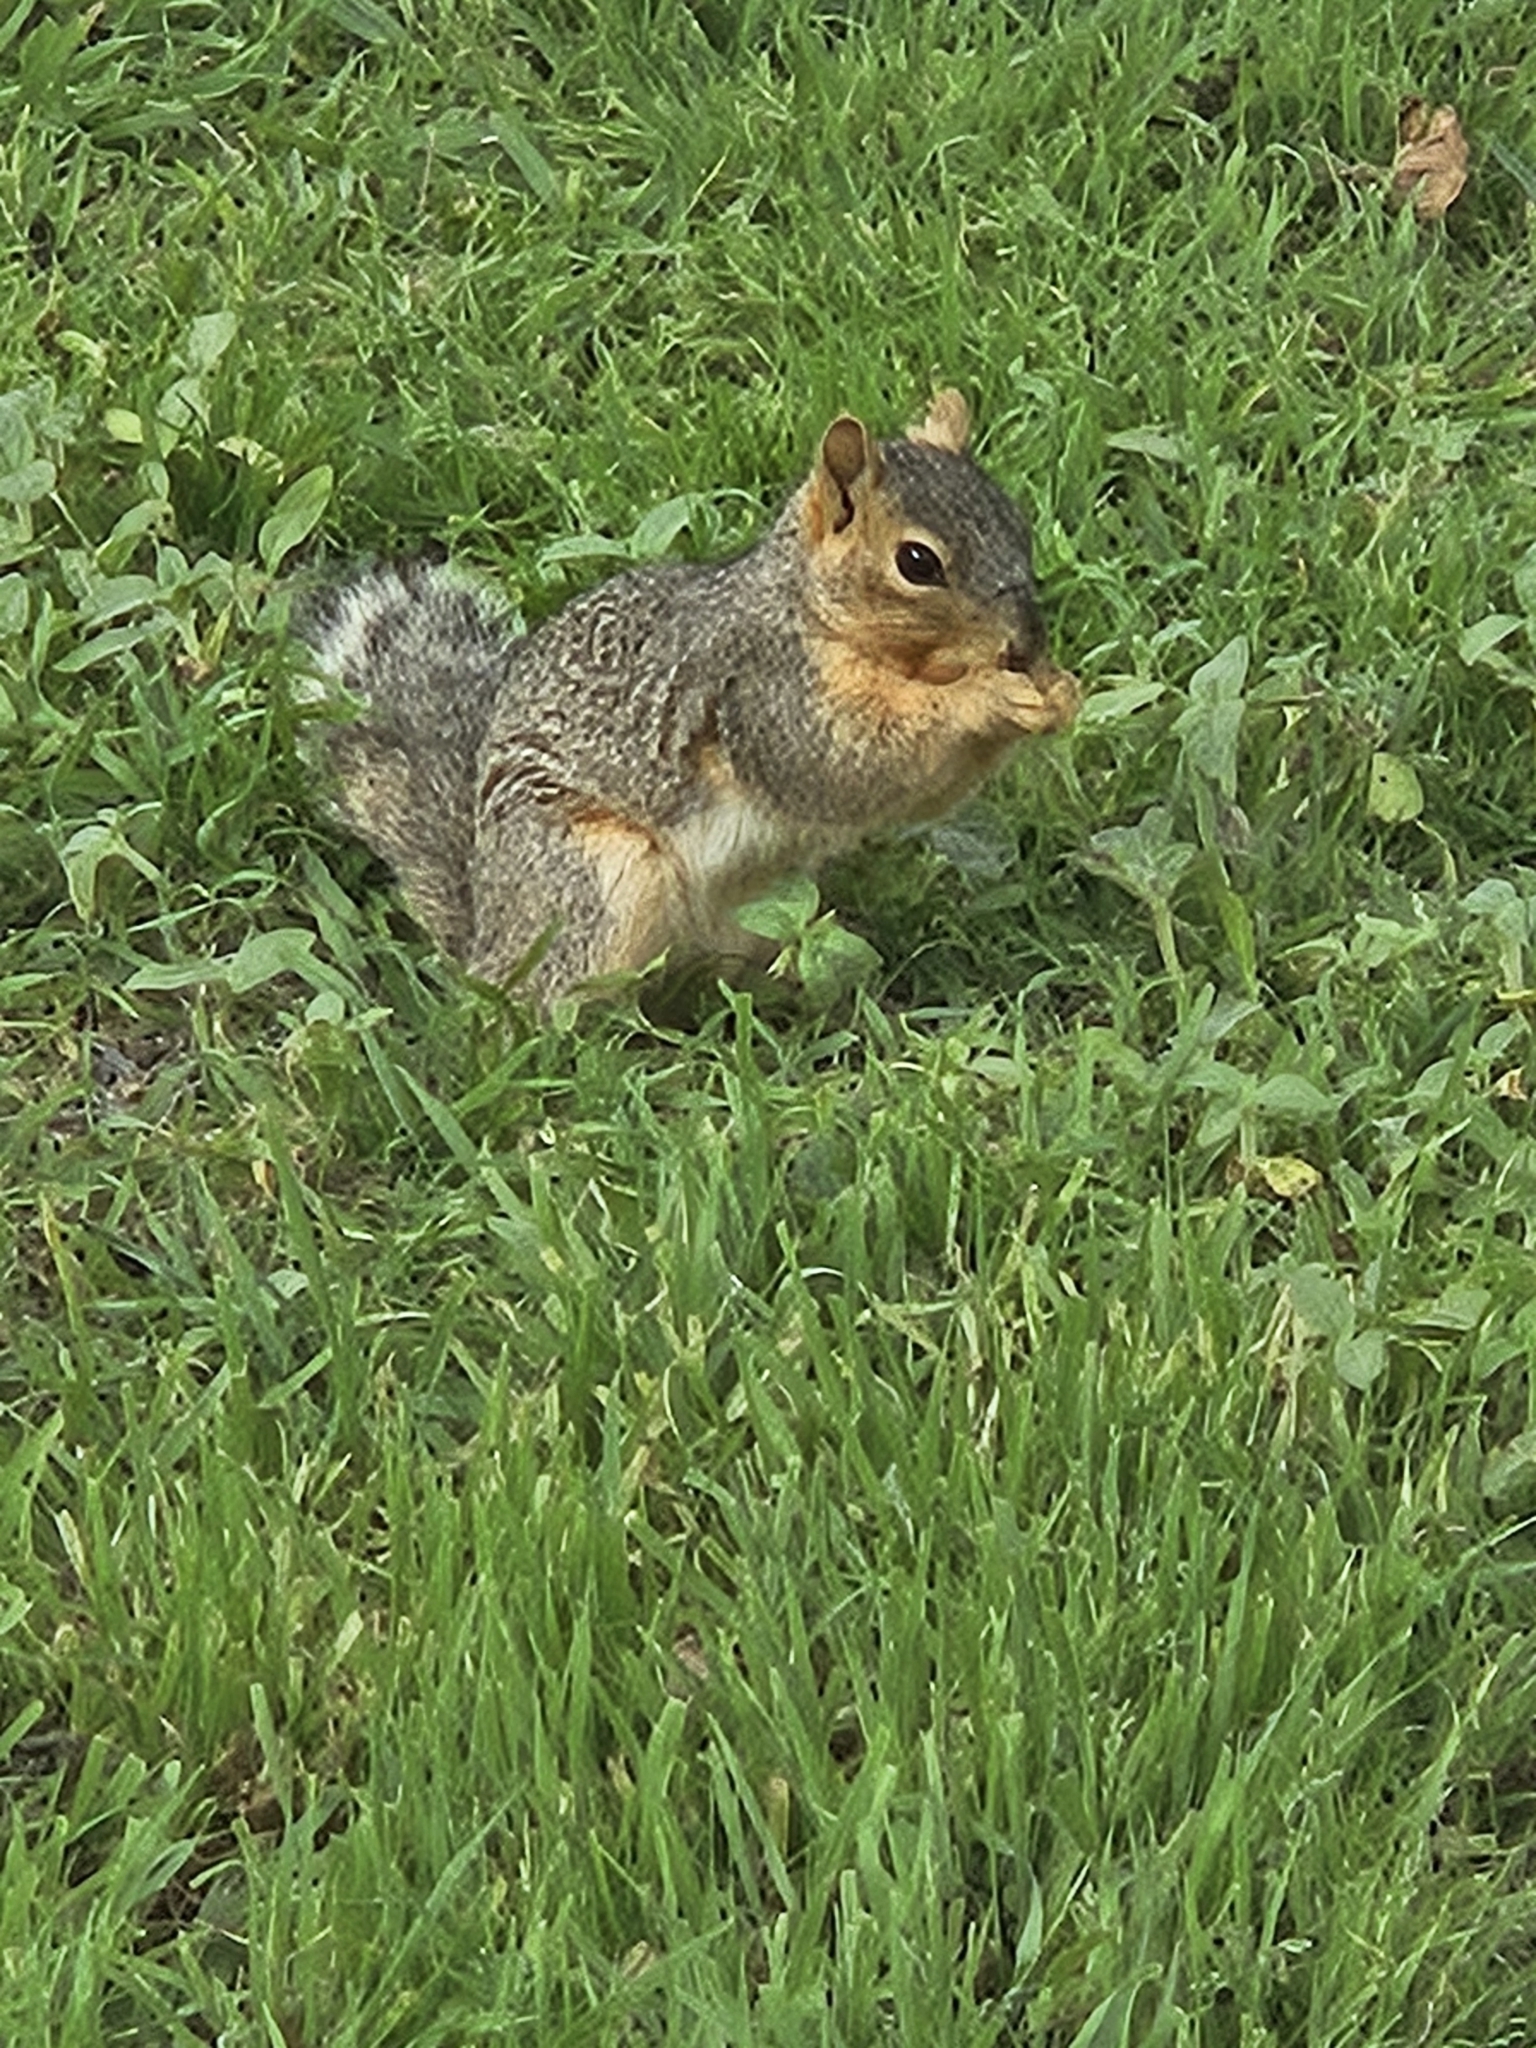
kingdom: Animalia
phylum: Chordata
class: Mammalia
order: Rodentia
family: Sciuridae
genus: Sciurus
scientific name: Sciurus niger
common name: Fox squirrel
